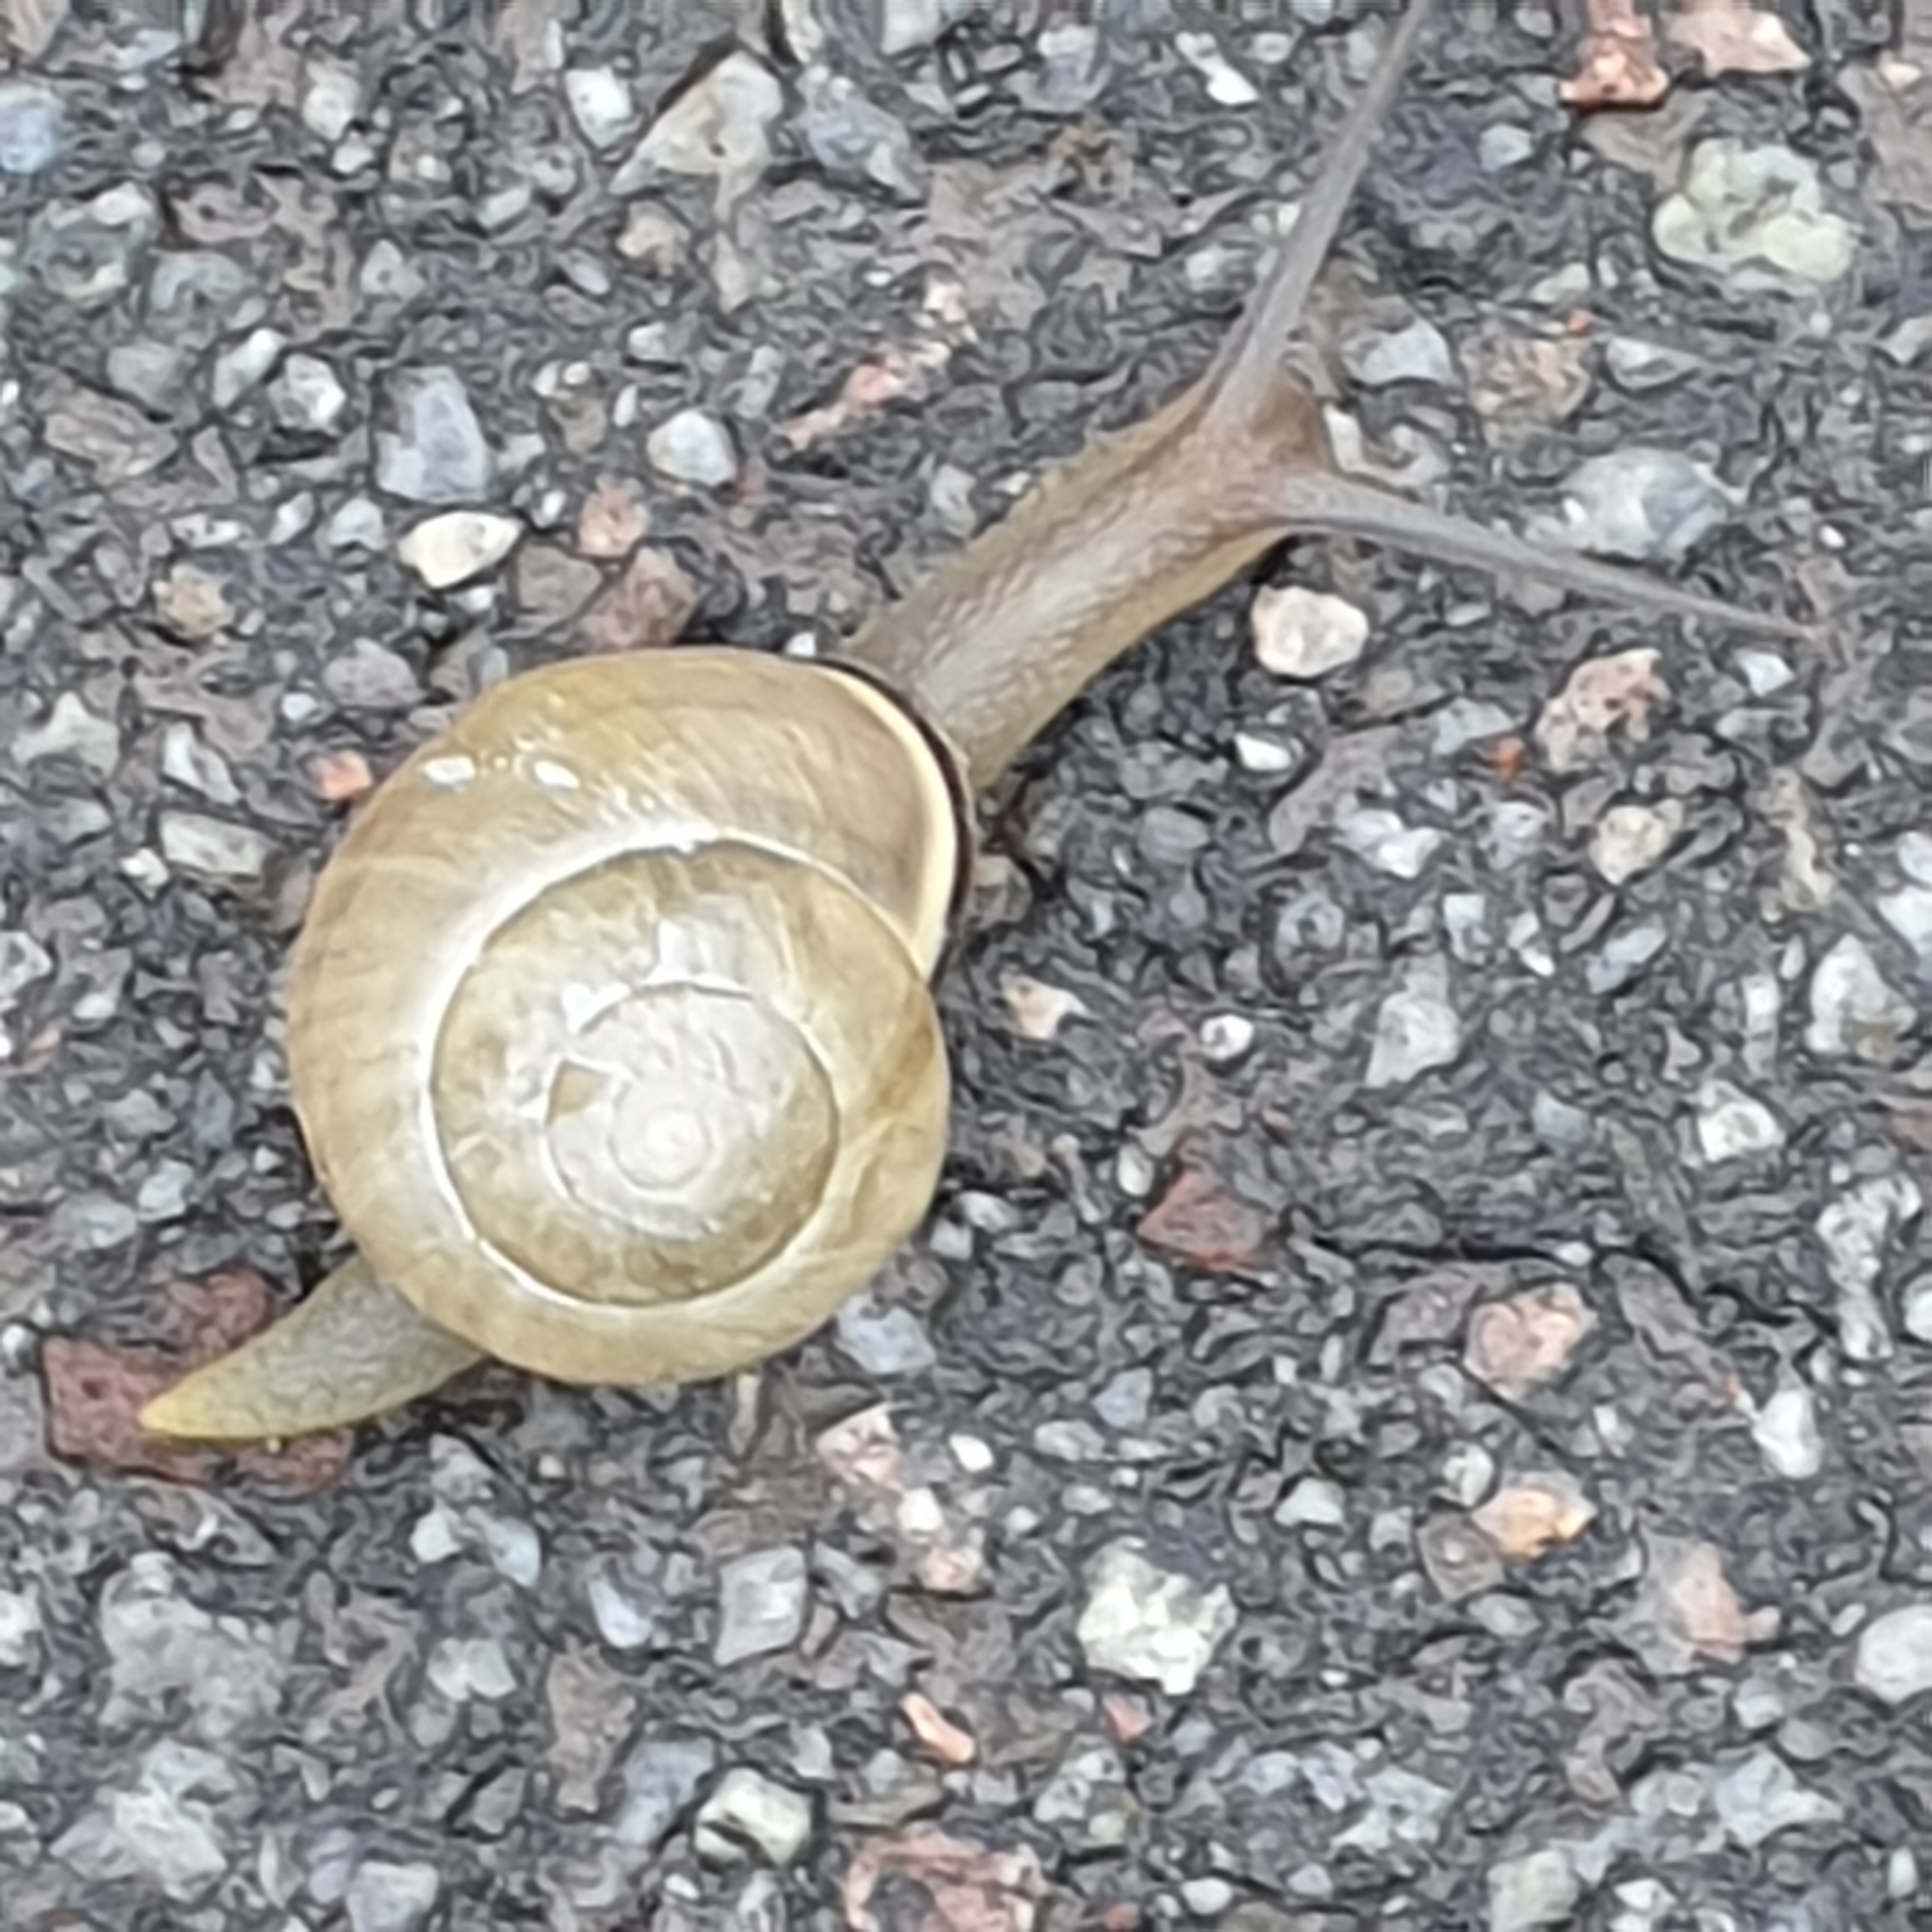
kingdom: Animalia
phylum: Mollusca
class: Gastropoda
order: Stylommatophora
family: Helicidae
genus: Cepaea
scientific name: Cepaea nemoralis
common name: Grovesnail
